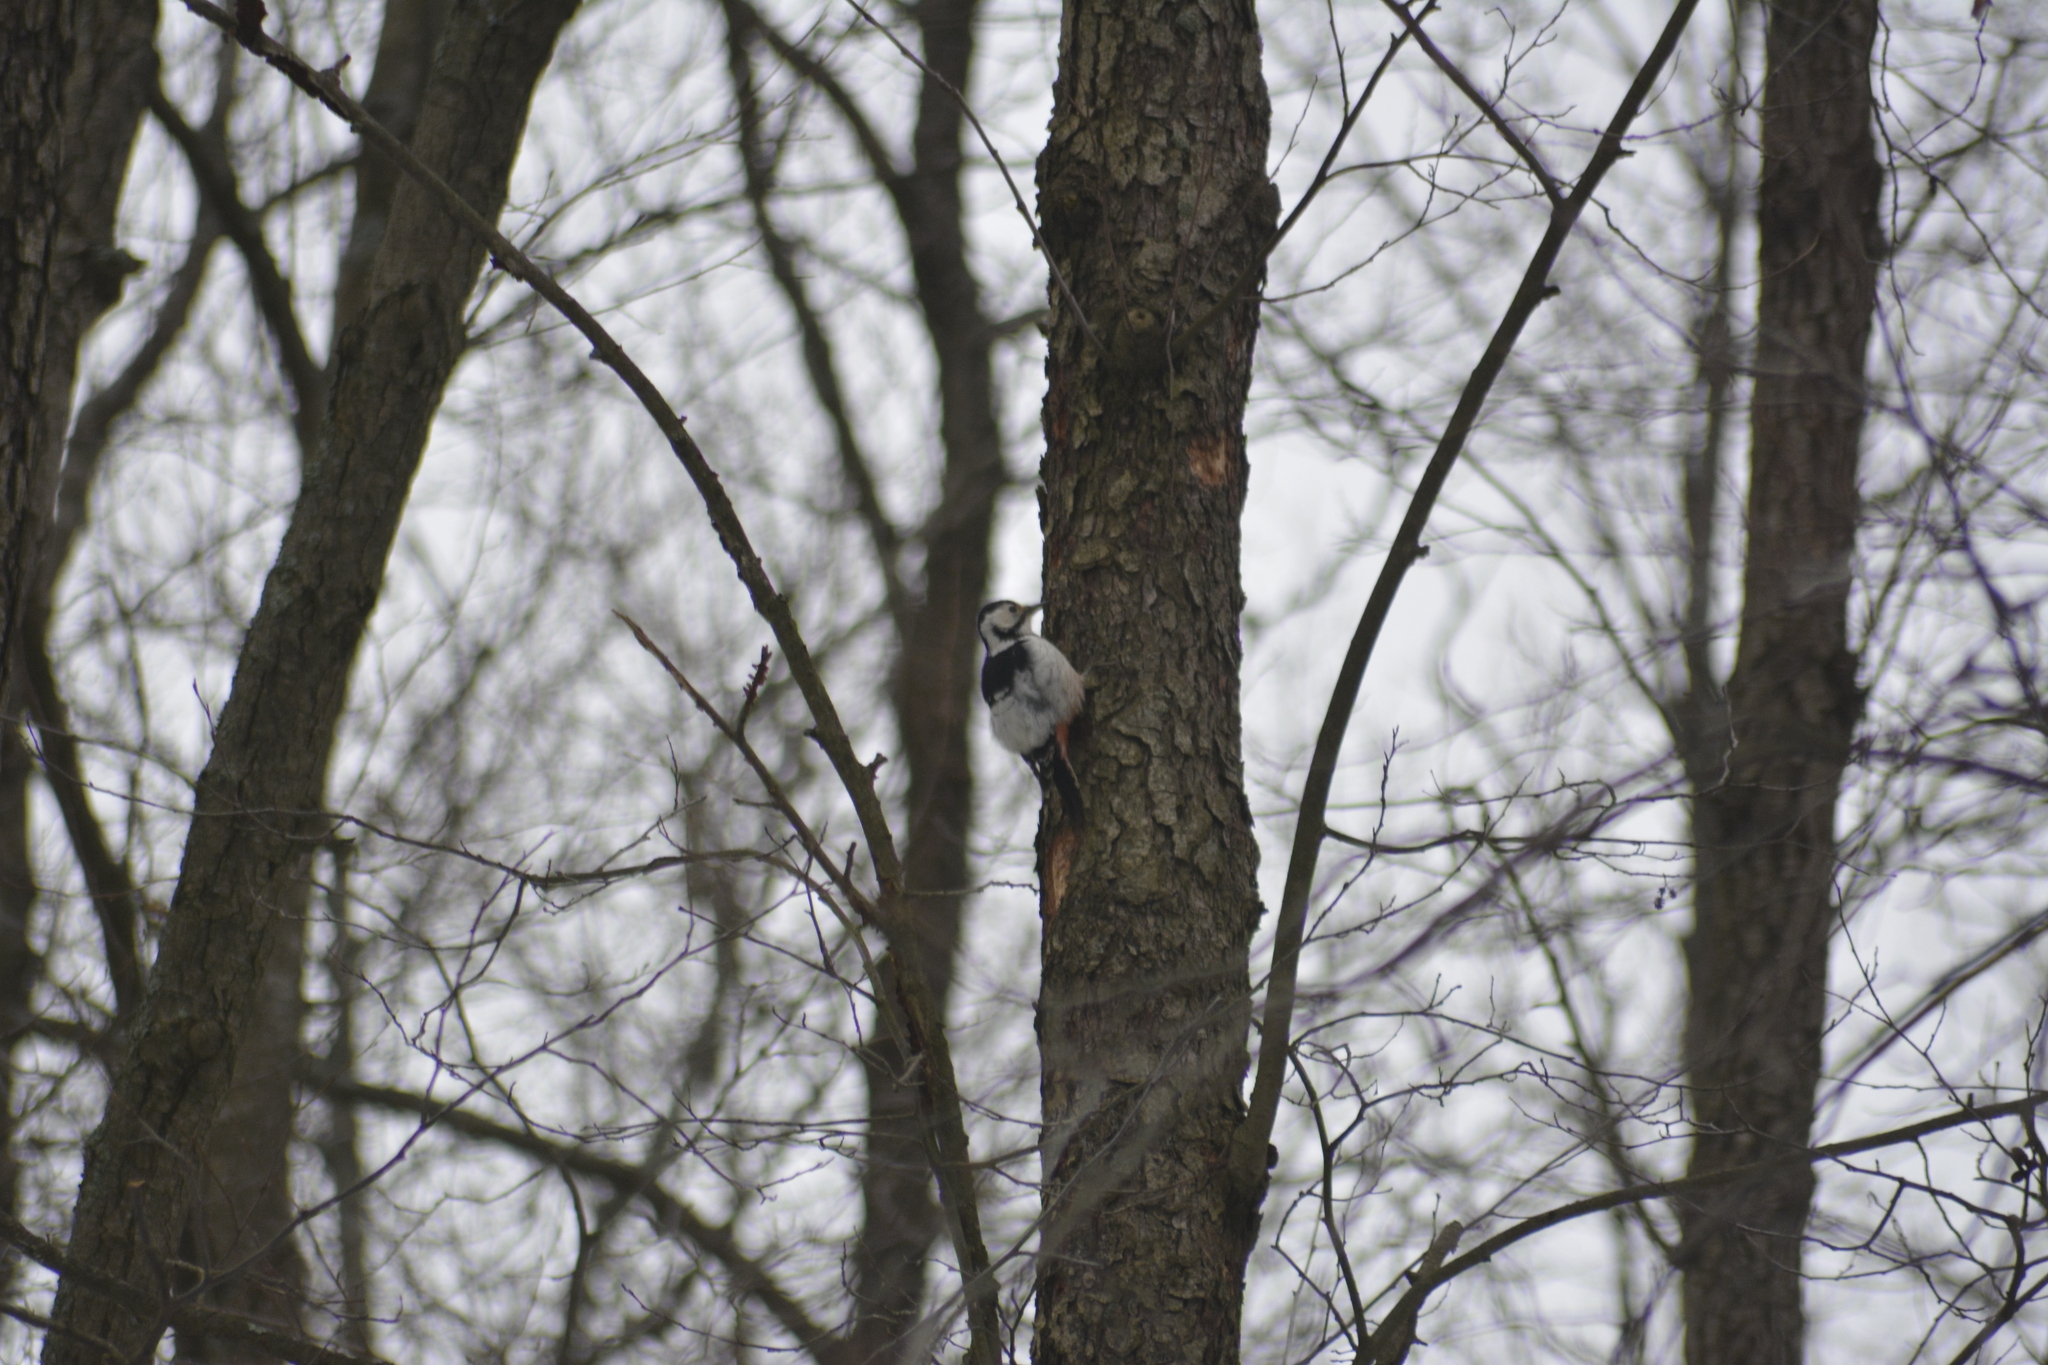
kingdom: Animalia
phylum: Chordata
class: Aves
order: Piciformes
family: Picidae
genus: Dendrocopos
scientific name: Dendrocopos leucotos
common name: White-backed woodpecker
